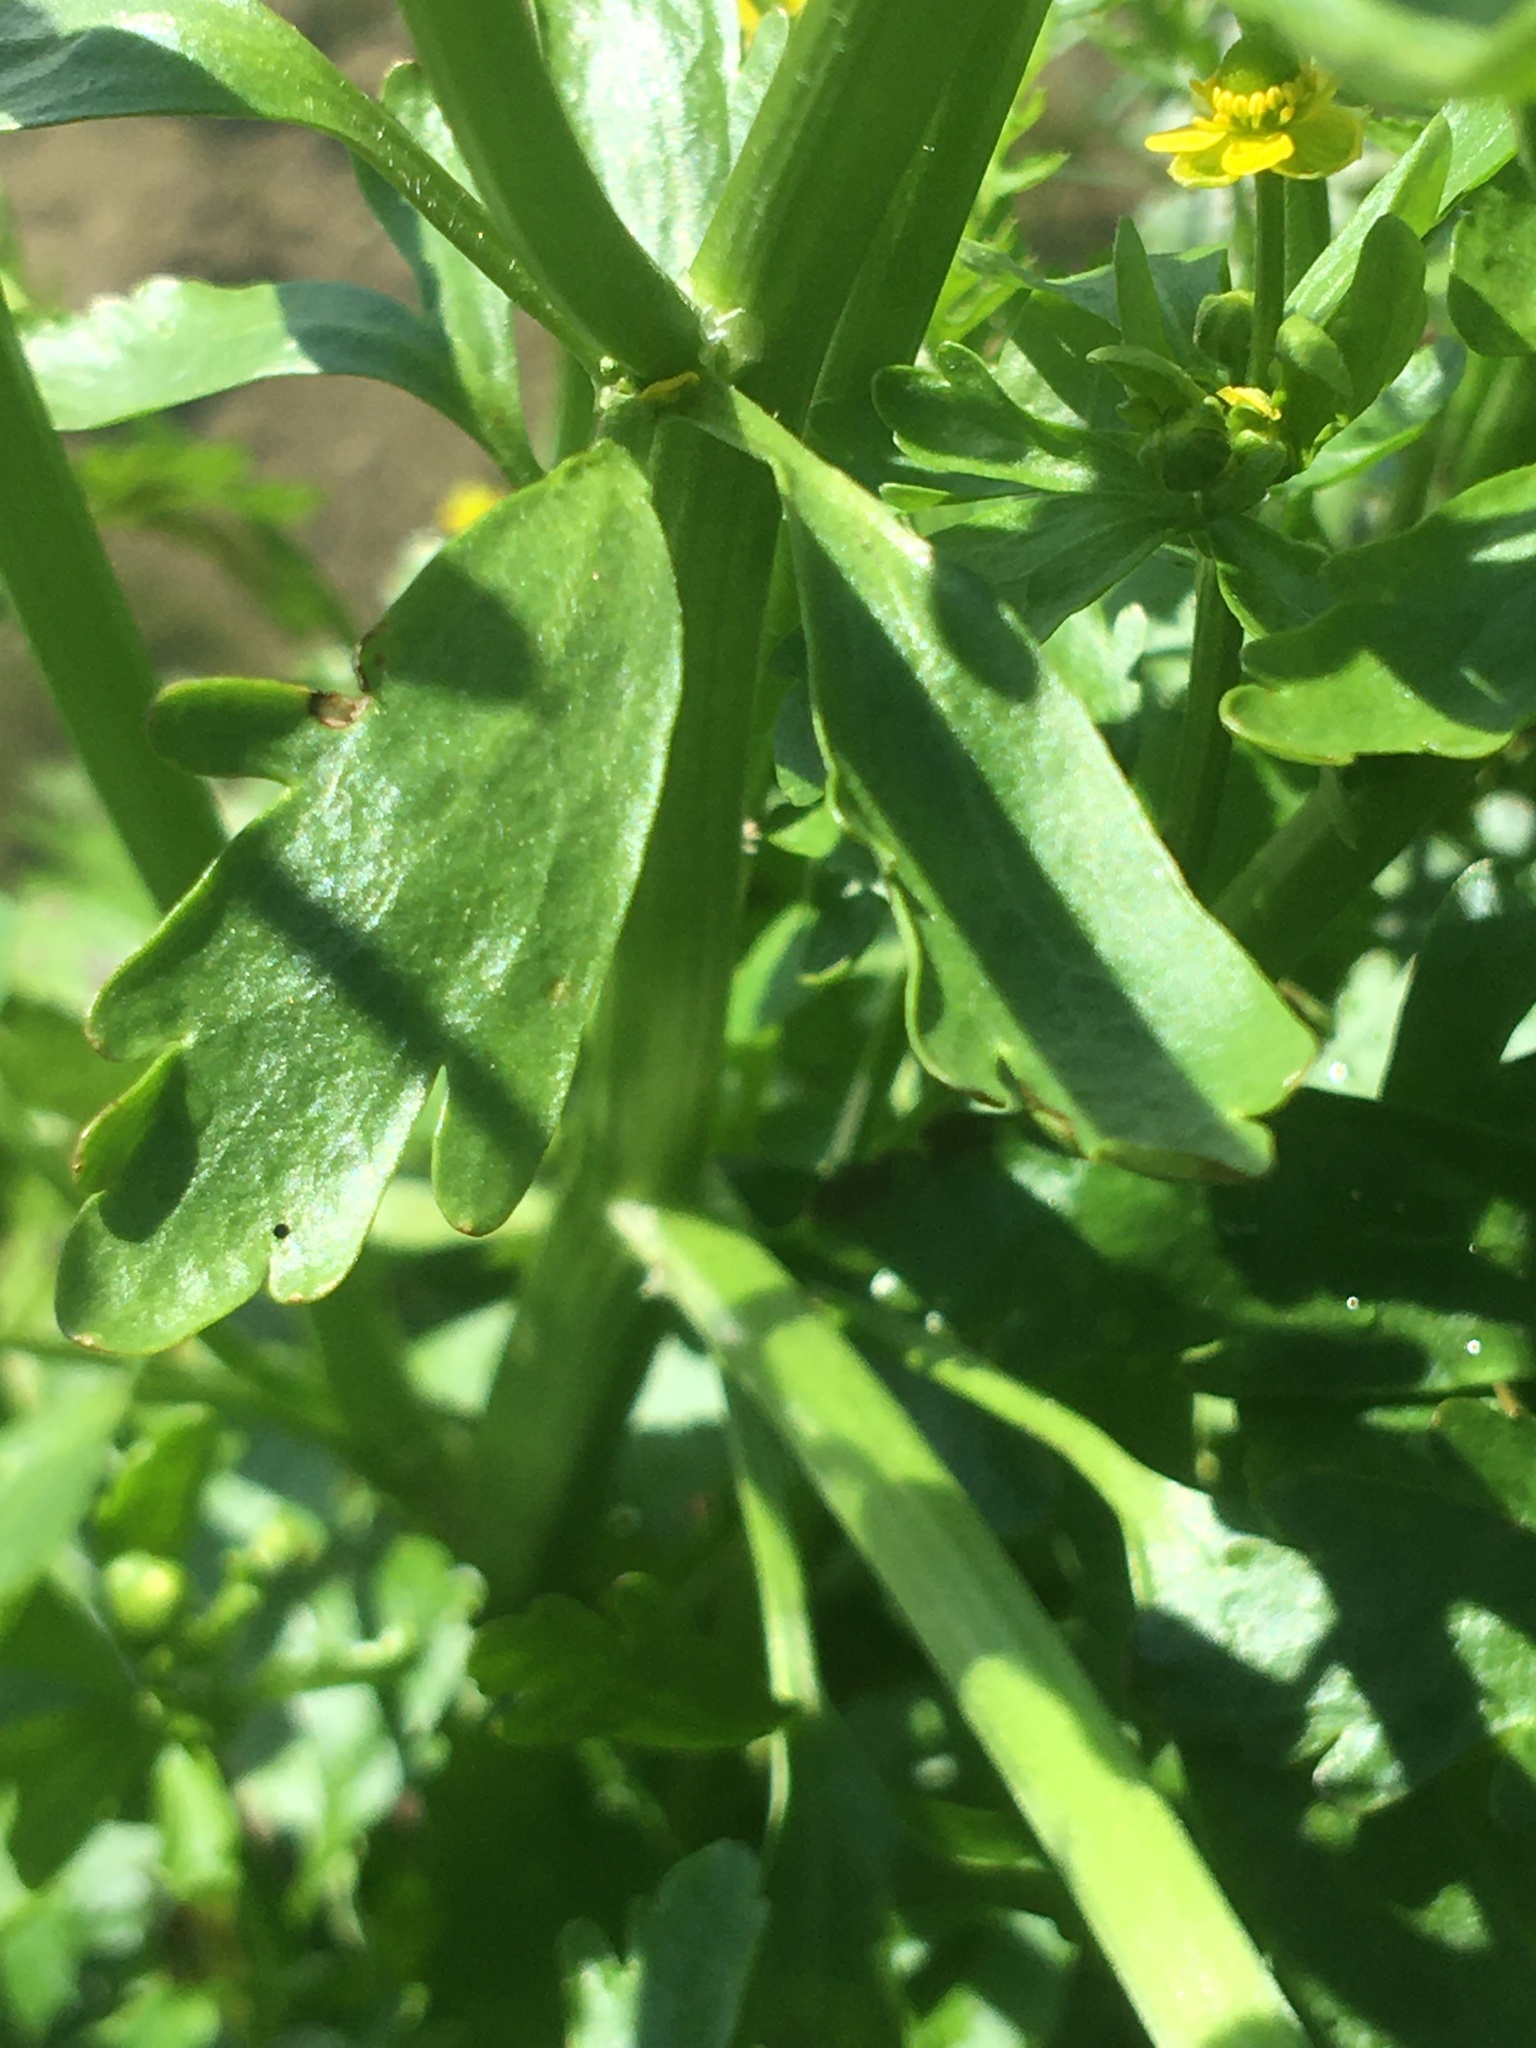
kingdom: Plantae
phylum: Tracheophyta
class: Magnoliopsida
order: Ranunculales
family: Ranunculaceae
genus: Ranunculus
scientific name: Ranunculus sceleratus
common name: Celery-leaved buttercup
